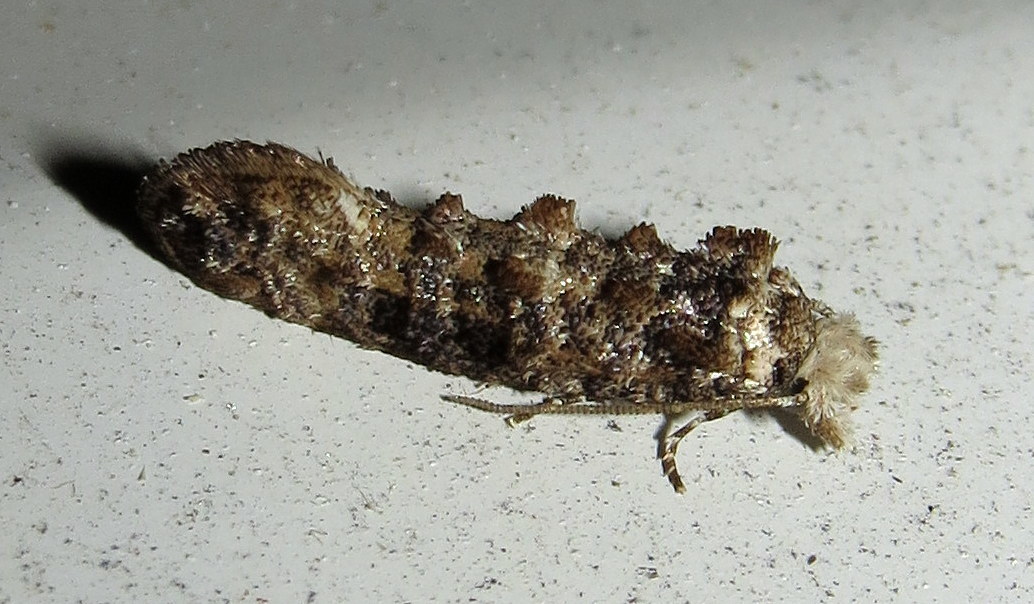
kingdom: Animalia
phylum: Arthropoda
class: Insecta
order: Lepidoptera
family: Tineidae
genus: Xylesthia
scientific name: Xylesthia pruniramiella
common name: Clemens' bark moth
